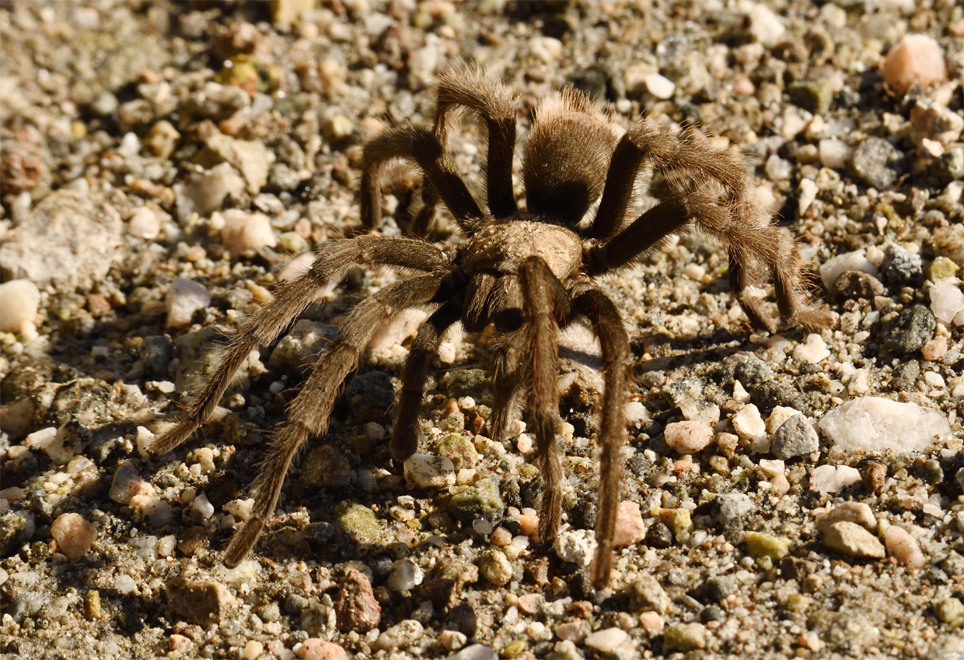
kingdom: Animalia
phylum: Arthropoda
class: Arachnida
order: Araneae
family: Theraphosidae
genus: Aphonopelma
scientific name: Aphonopelma eutylenum
